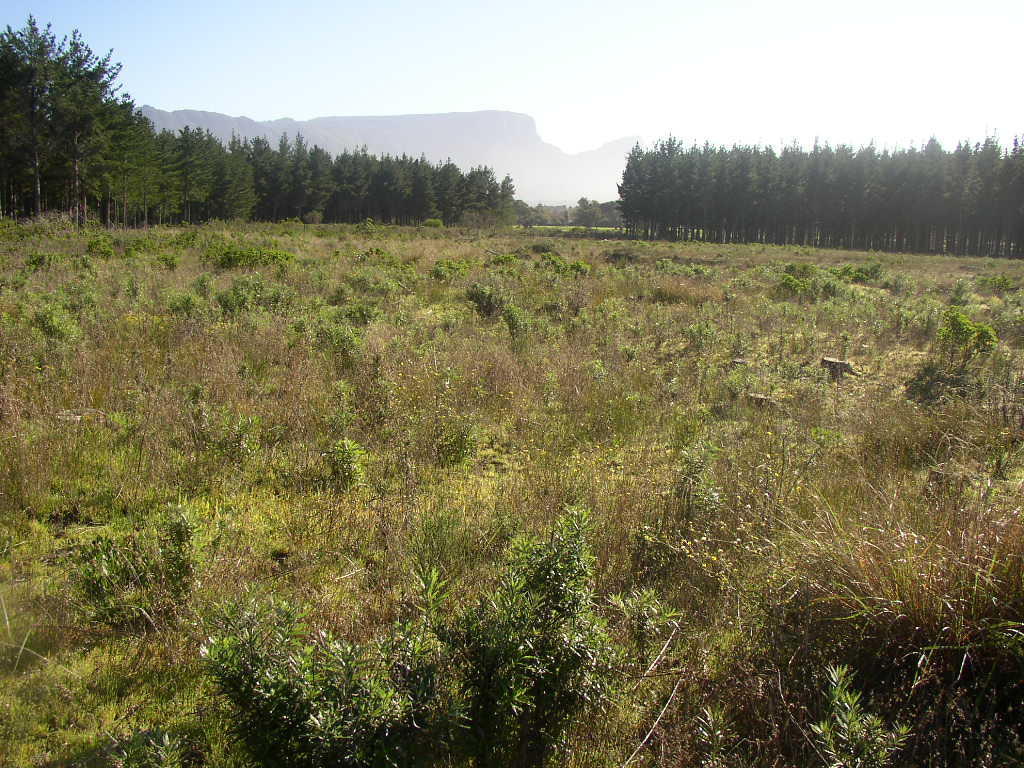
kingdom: Plantae
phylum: Tracheophyta
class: Magnoliopsida
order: Asterales
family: Asteraceae
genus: Senecio
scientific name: Senecio pterophorus
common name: Shoddy ragwort
